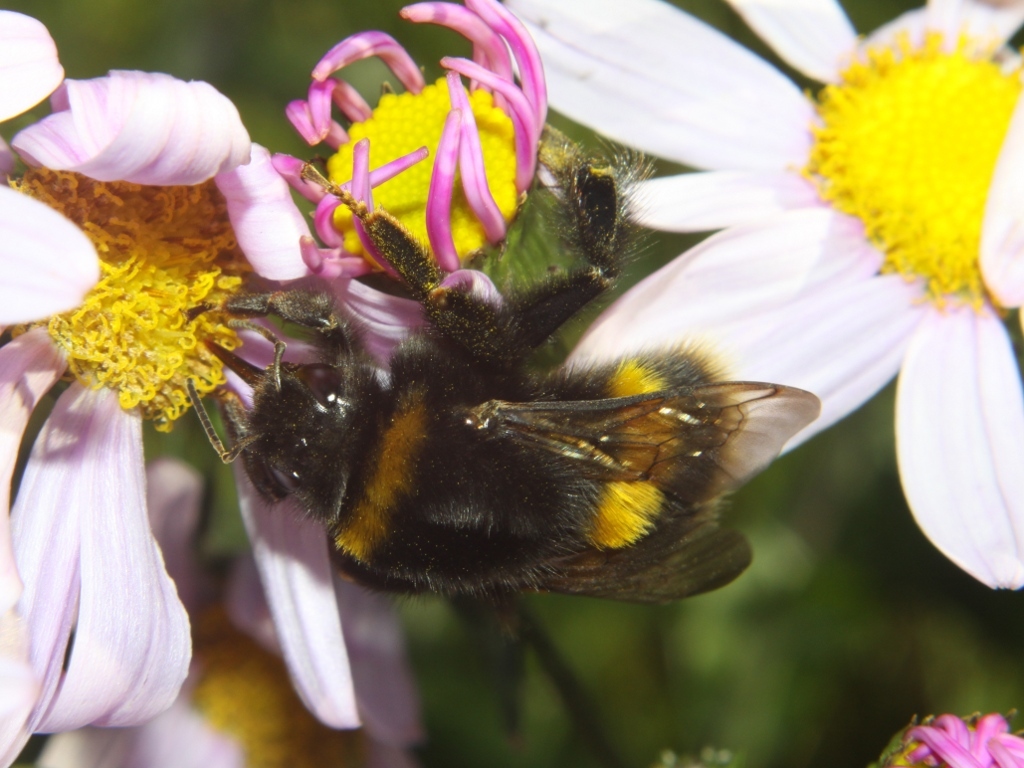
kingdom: Animalia
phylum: Arthropoda
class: Insecta
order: Hymenoptera
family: Apidae
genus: Bombus
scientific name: Bombus terrestris
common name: Buff-tailed bumblebee
